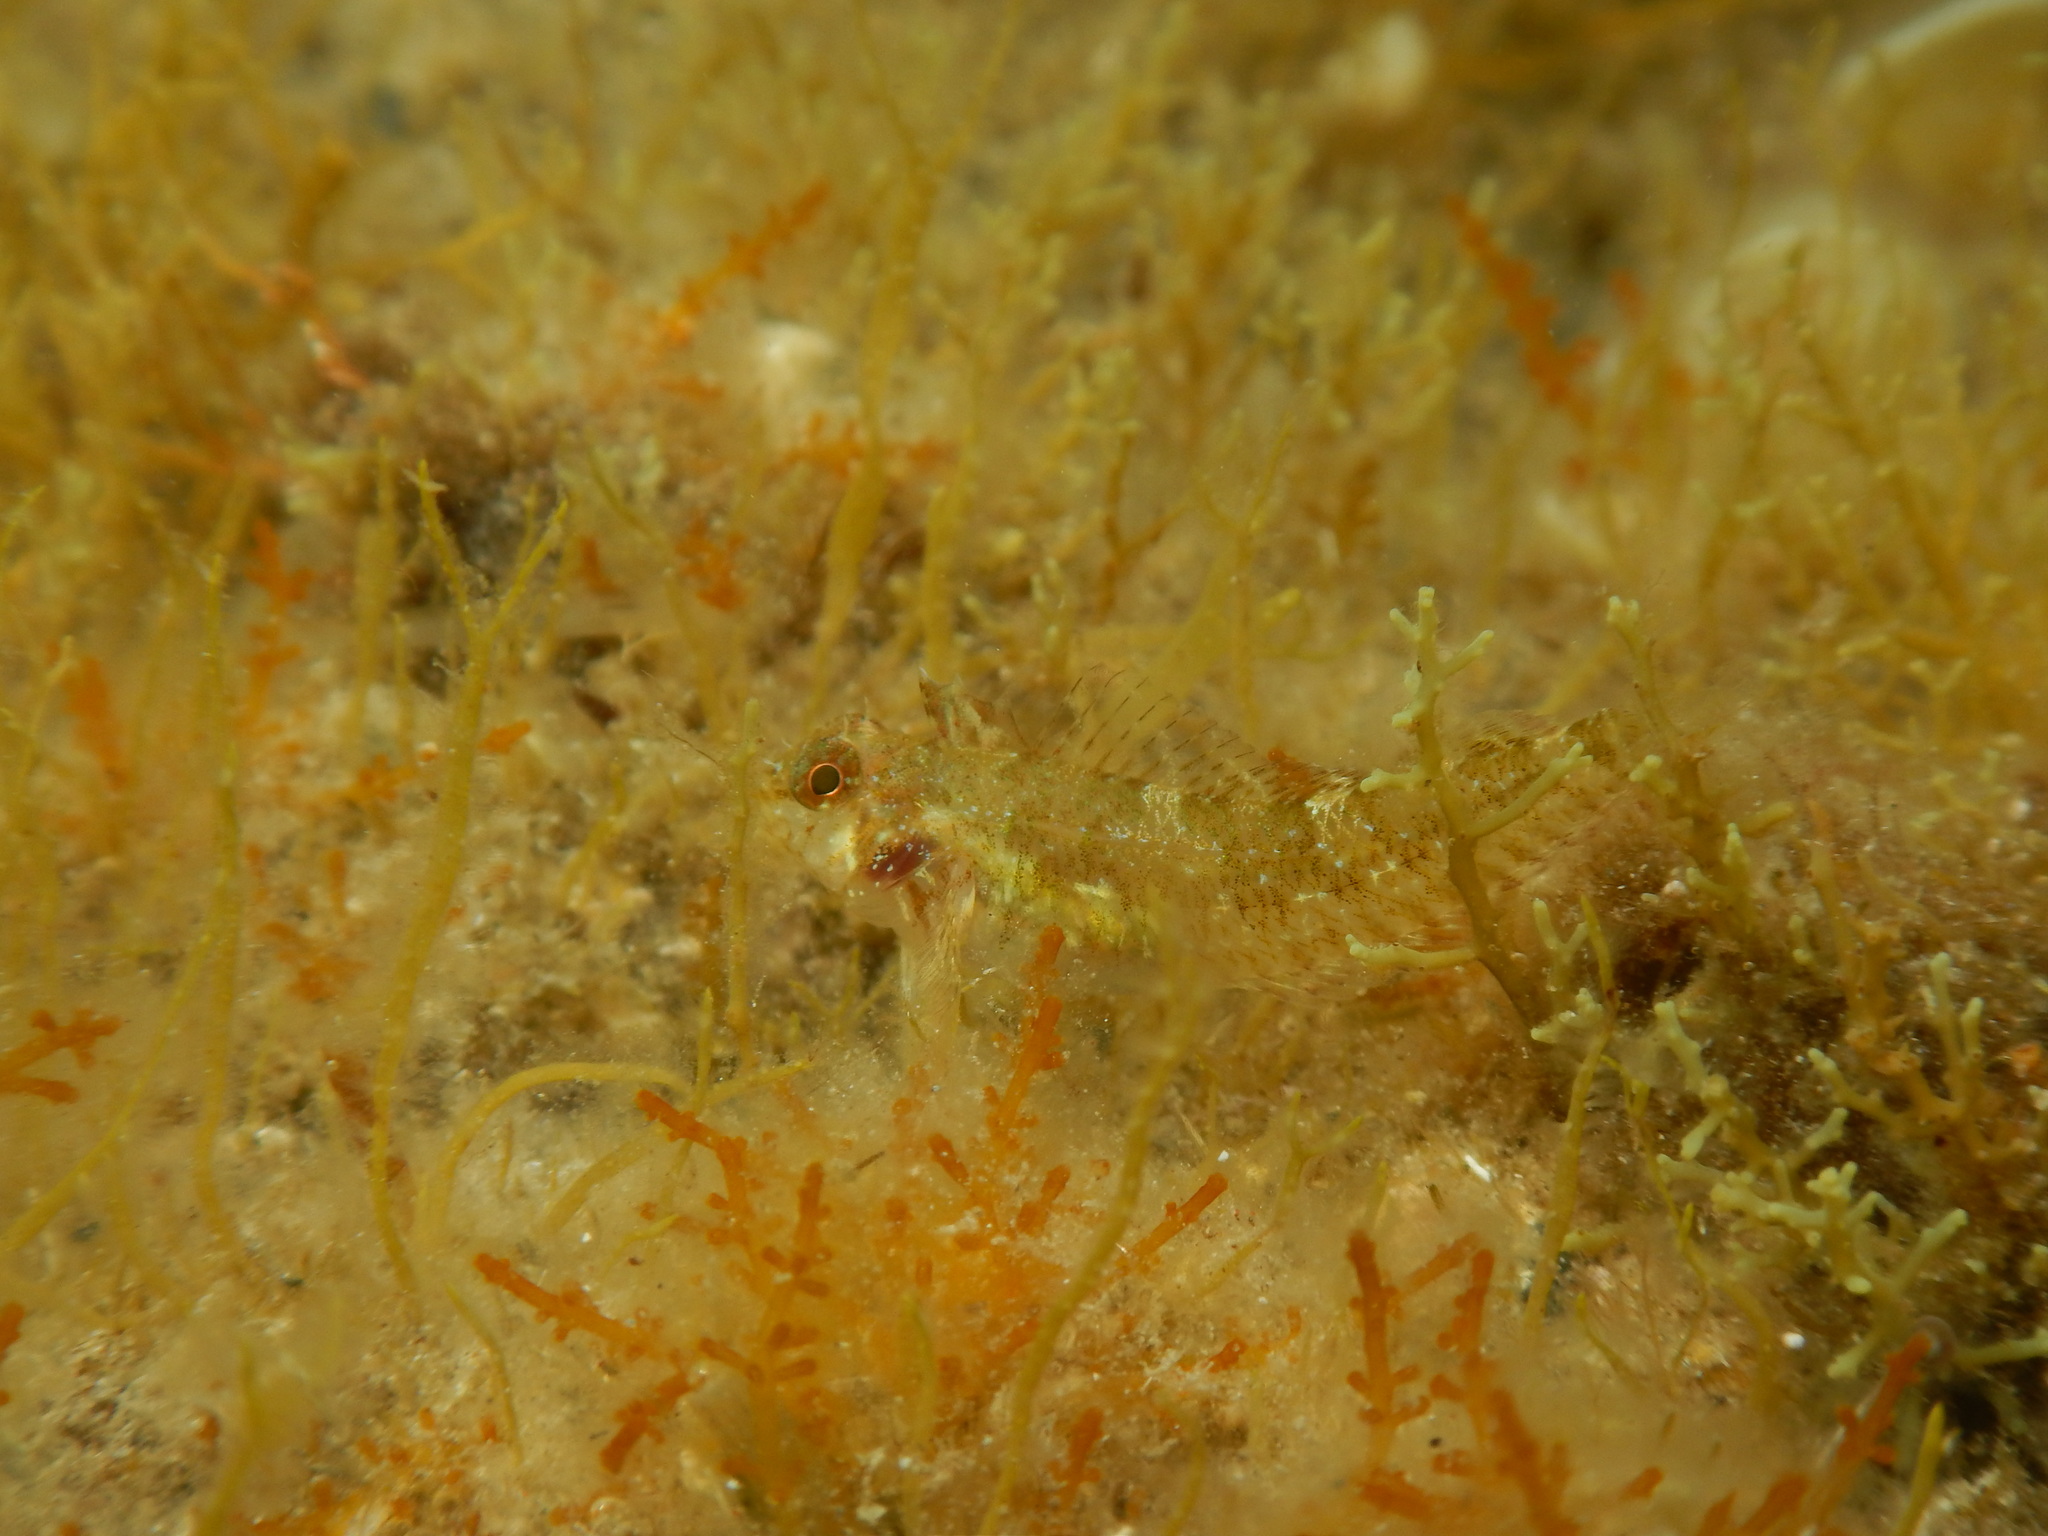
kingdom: Animalia
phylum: Chordata
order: Perciformes
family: Tripterygiidae
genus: Tripterygion
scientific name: Tripterygion tripteronotum
